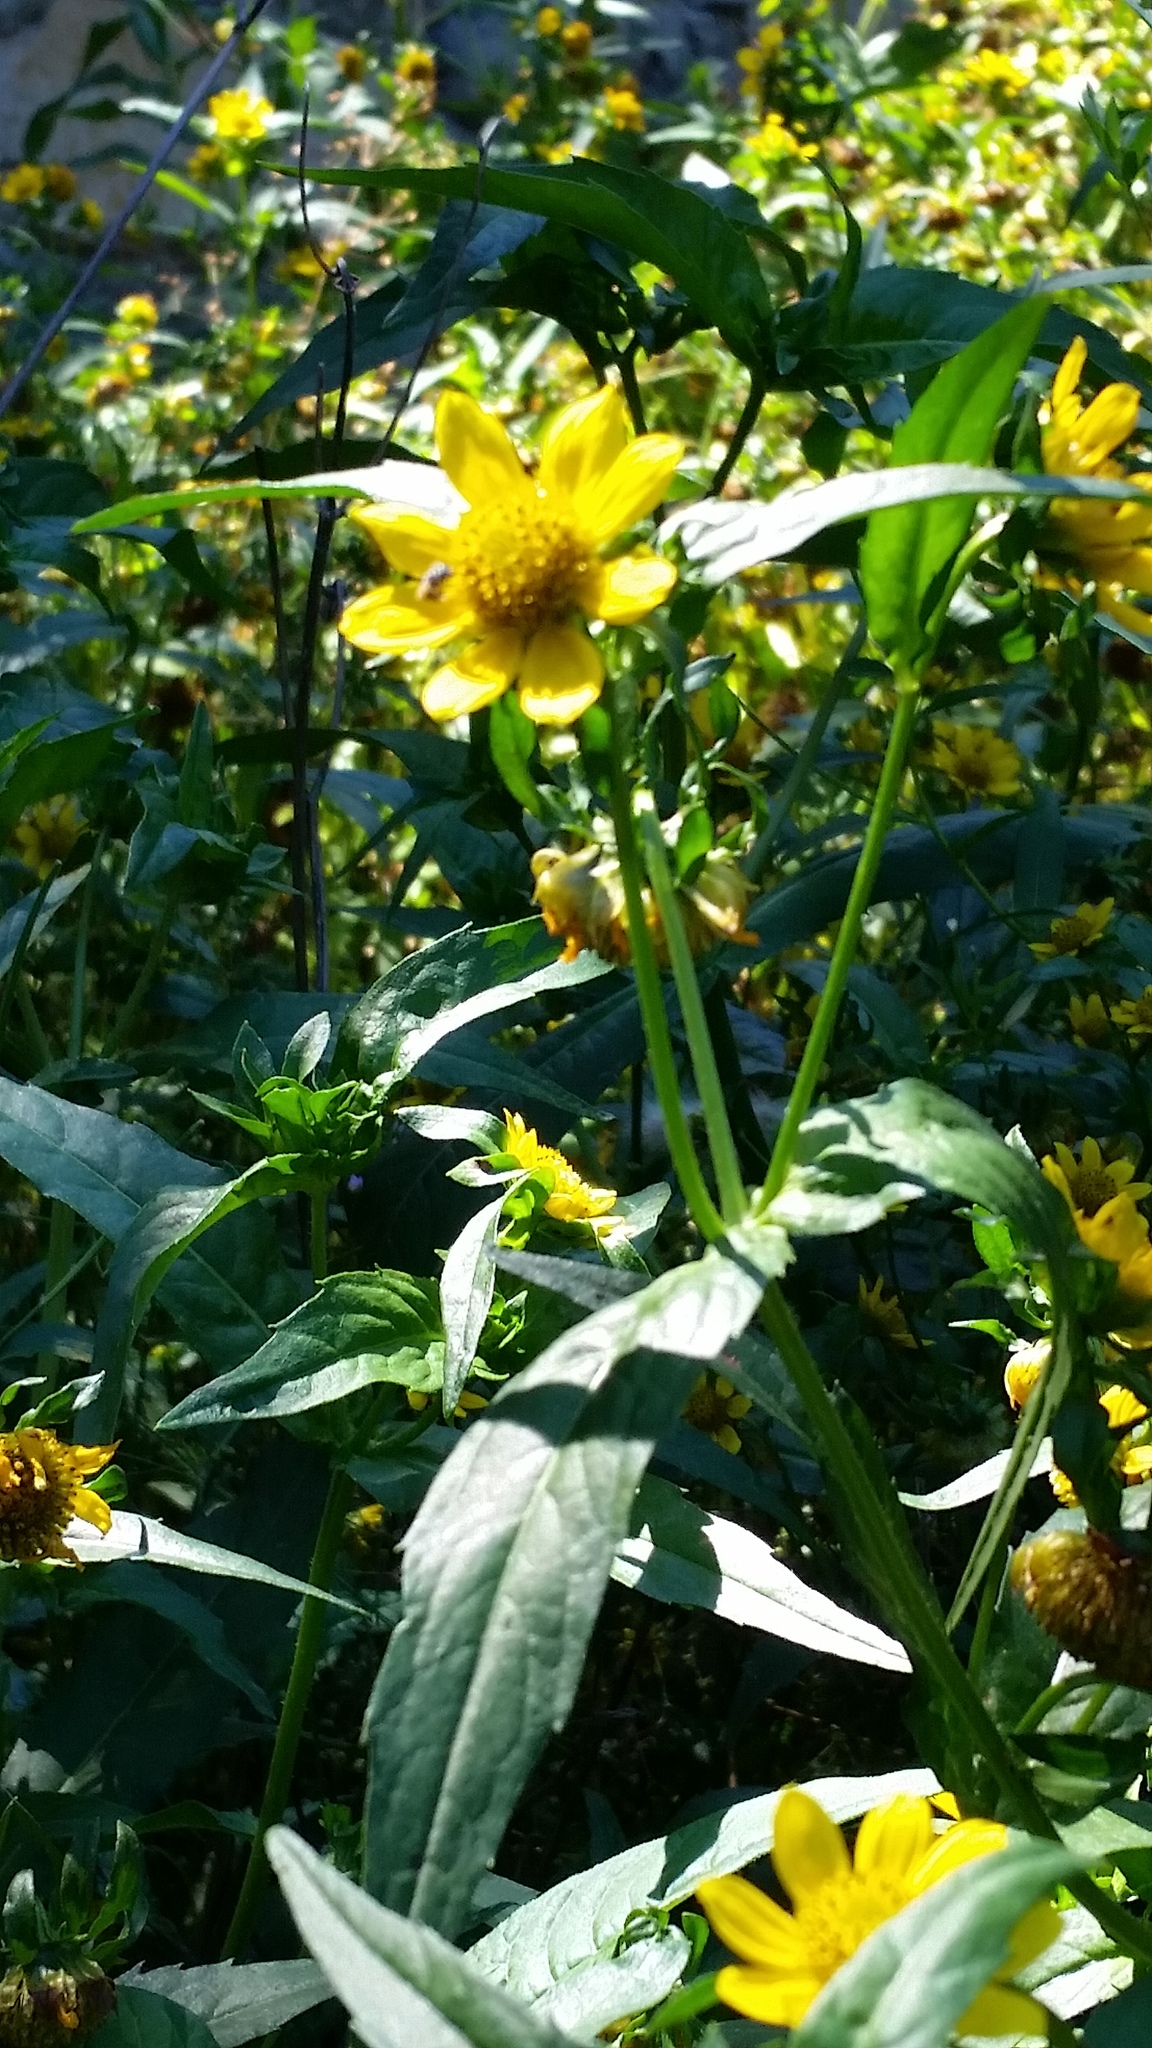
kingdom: Plantae
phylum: Tracheophyta
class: Magnoliopsida
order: Asterales
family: Asteraceae
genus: Bidens
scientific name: Bidens laevis
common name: Larger bur-marigold
